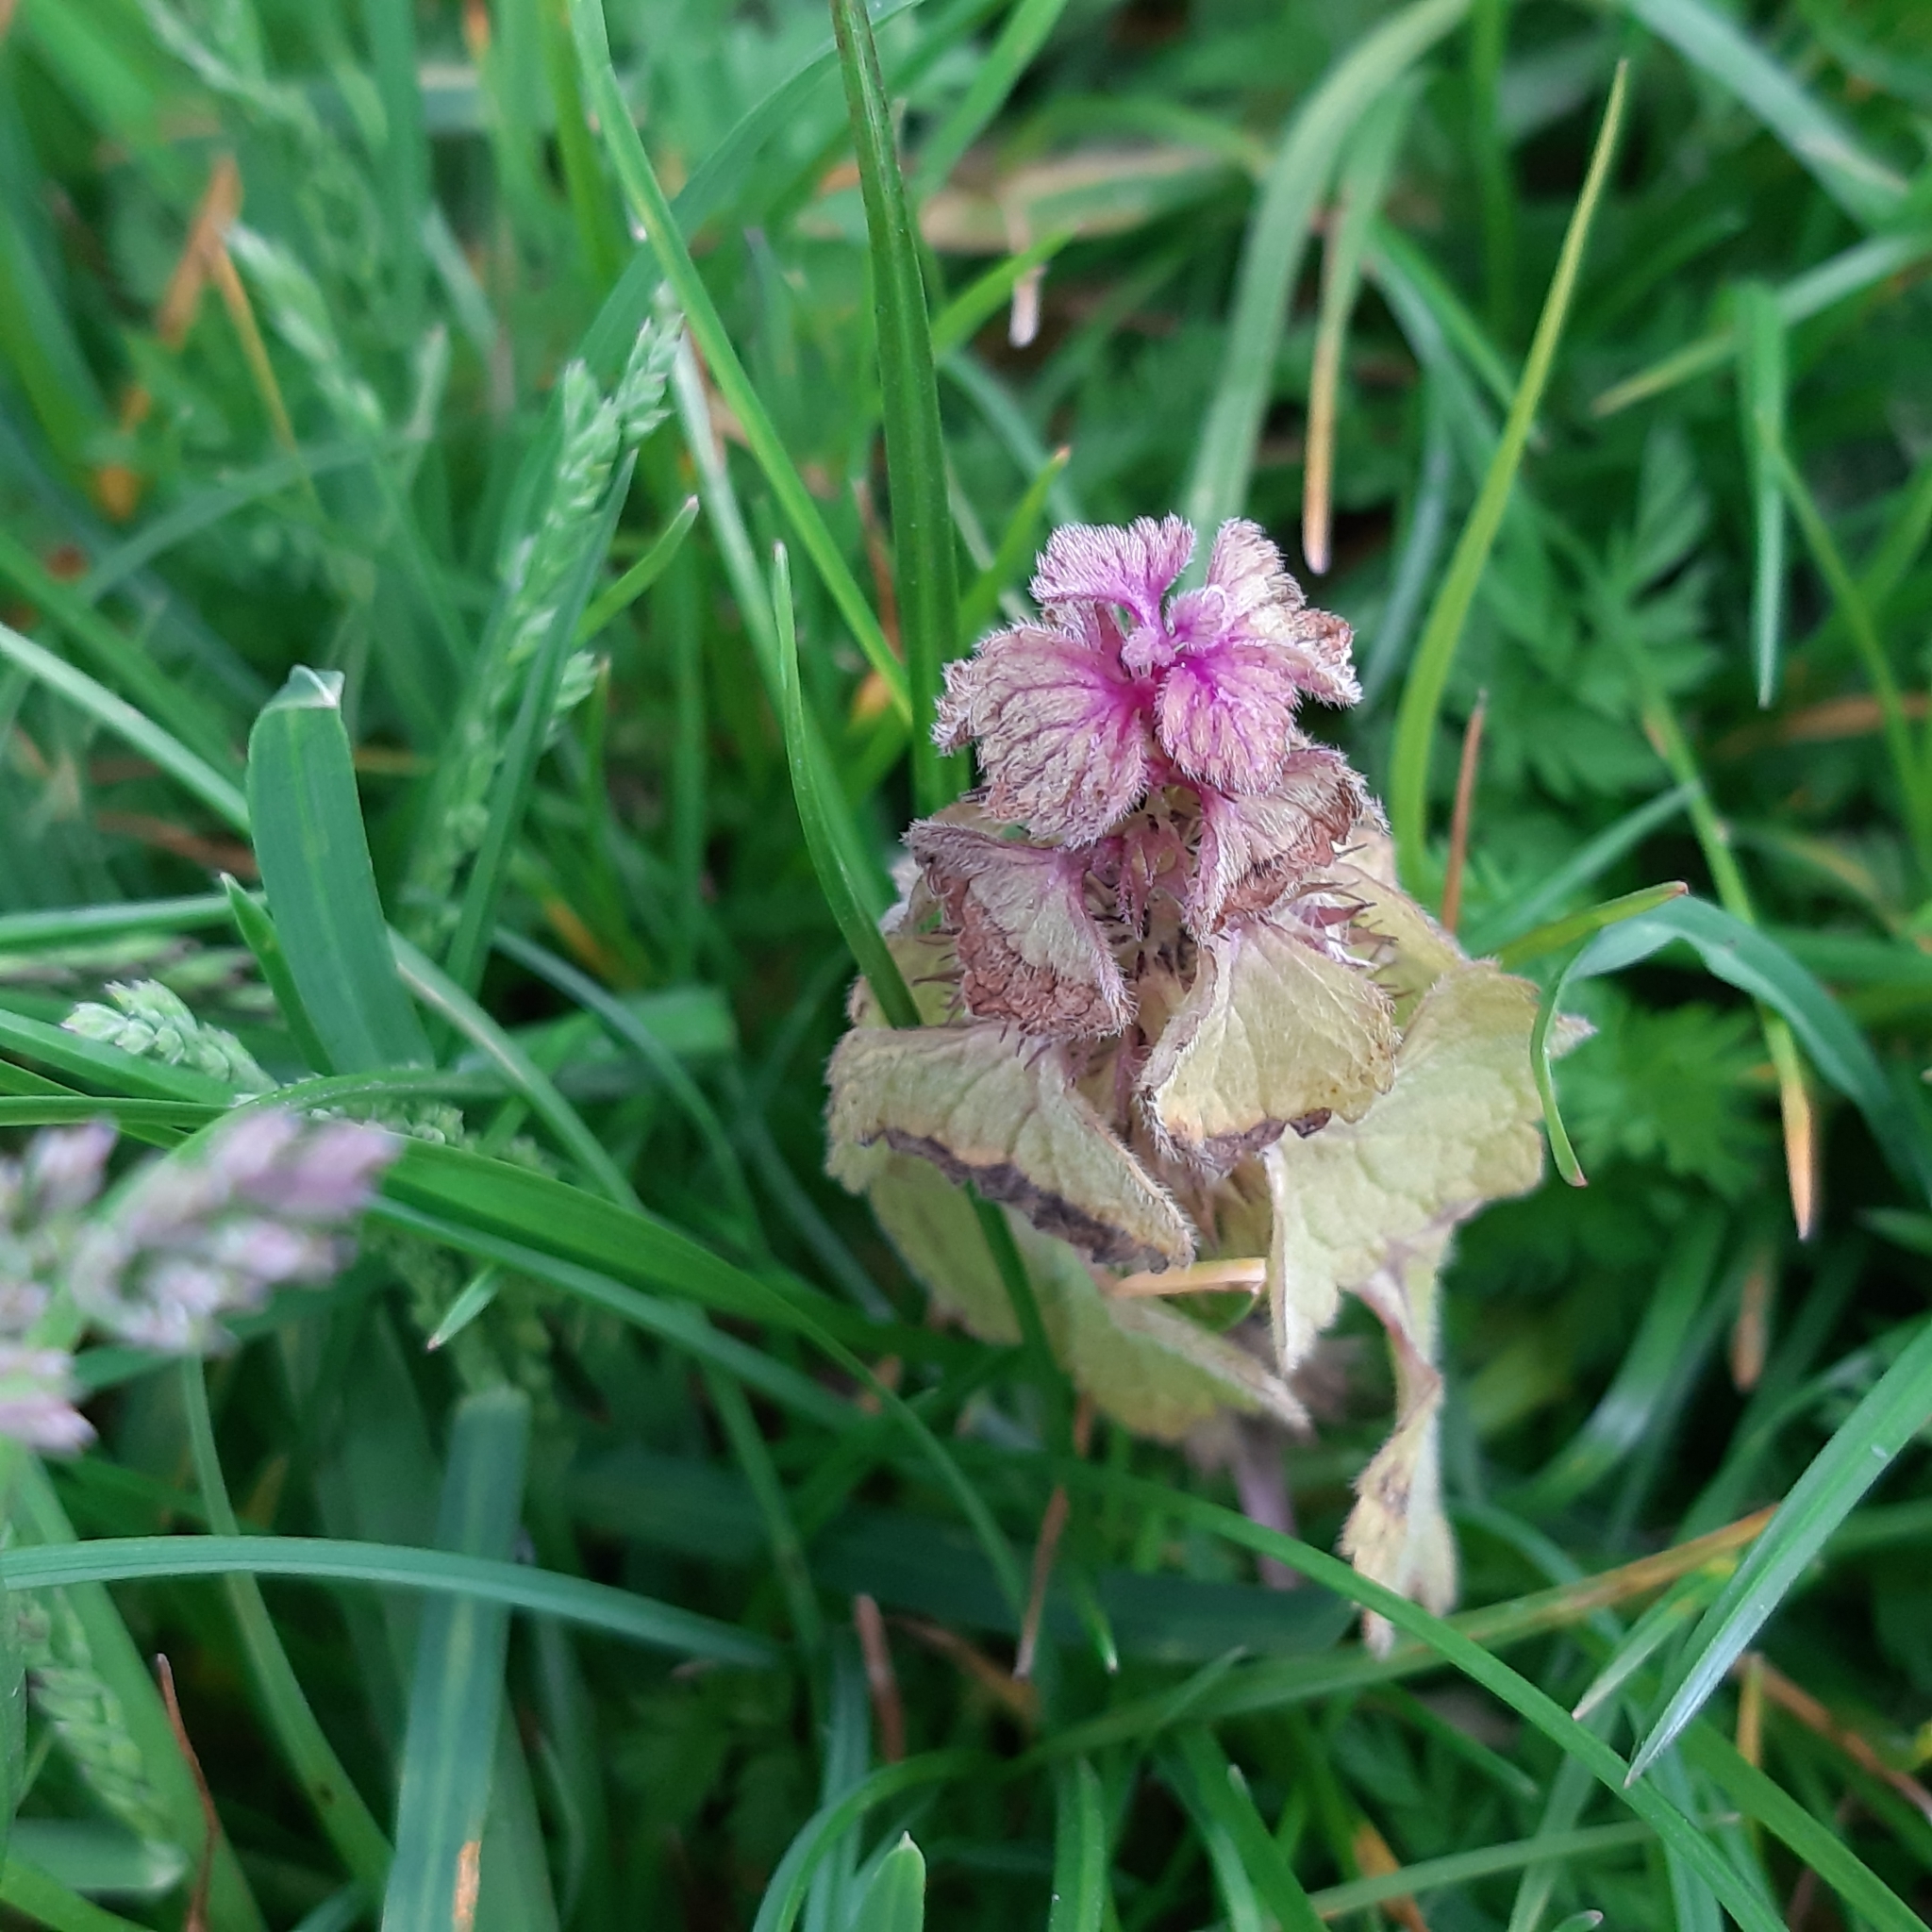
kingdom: Plantae
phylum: Tracheophyta
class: Magnoliopsida
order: Lamiales
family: Lamiaceae
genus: Lamium
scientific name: Lamium purpureum
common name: Red dead-nettle
